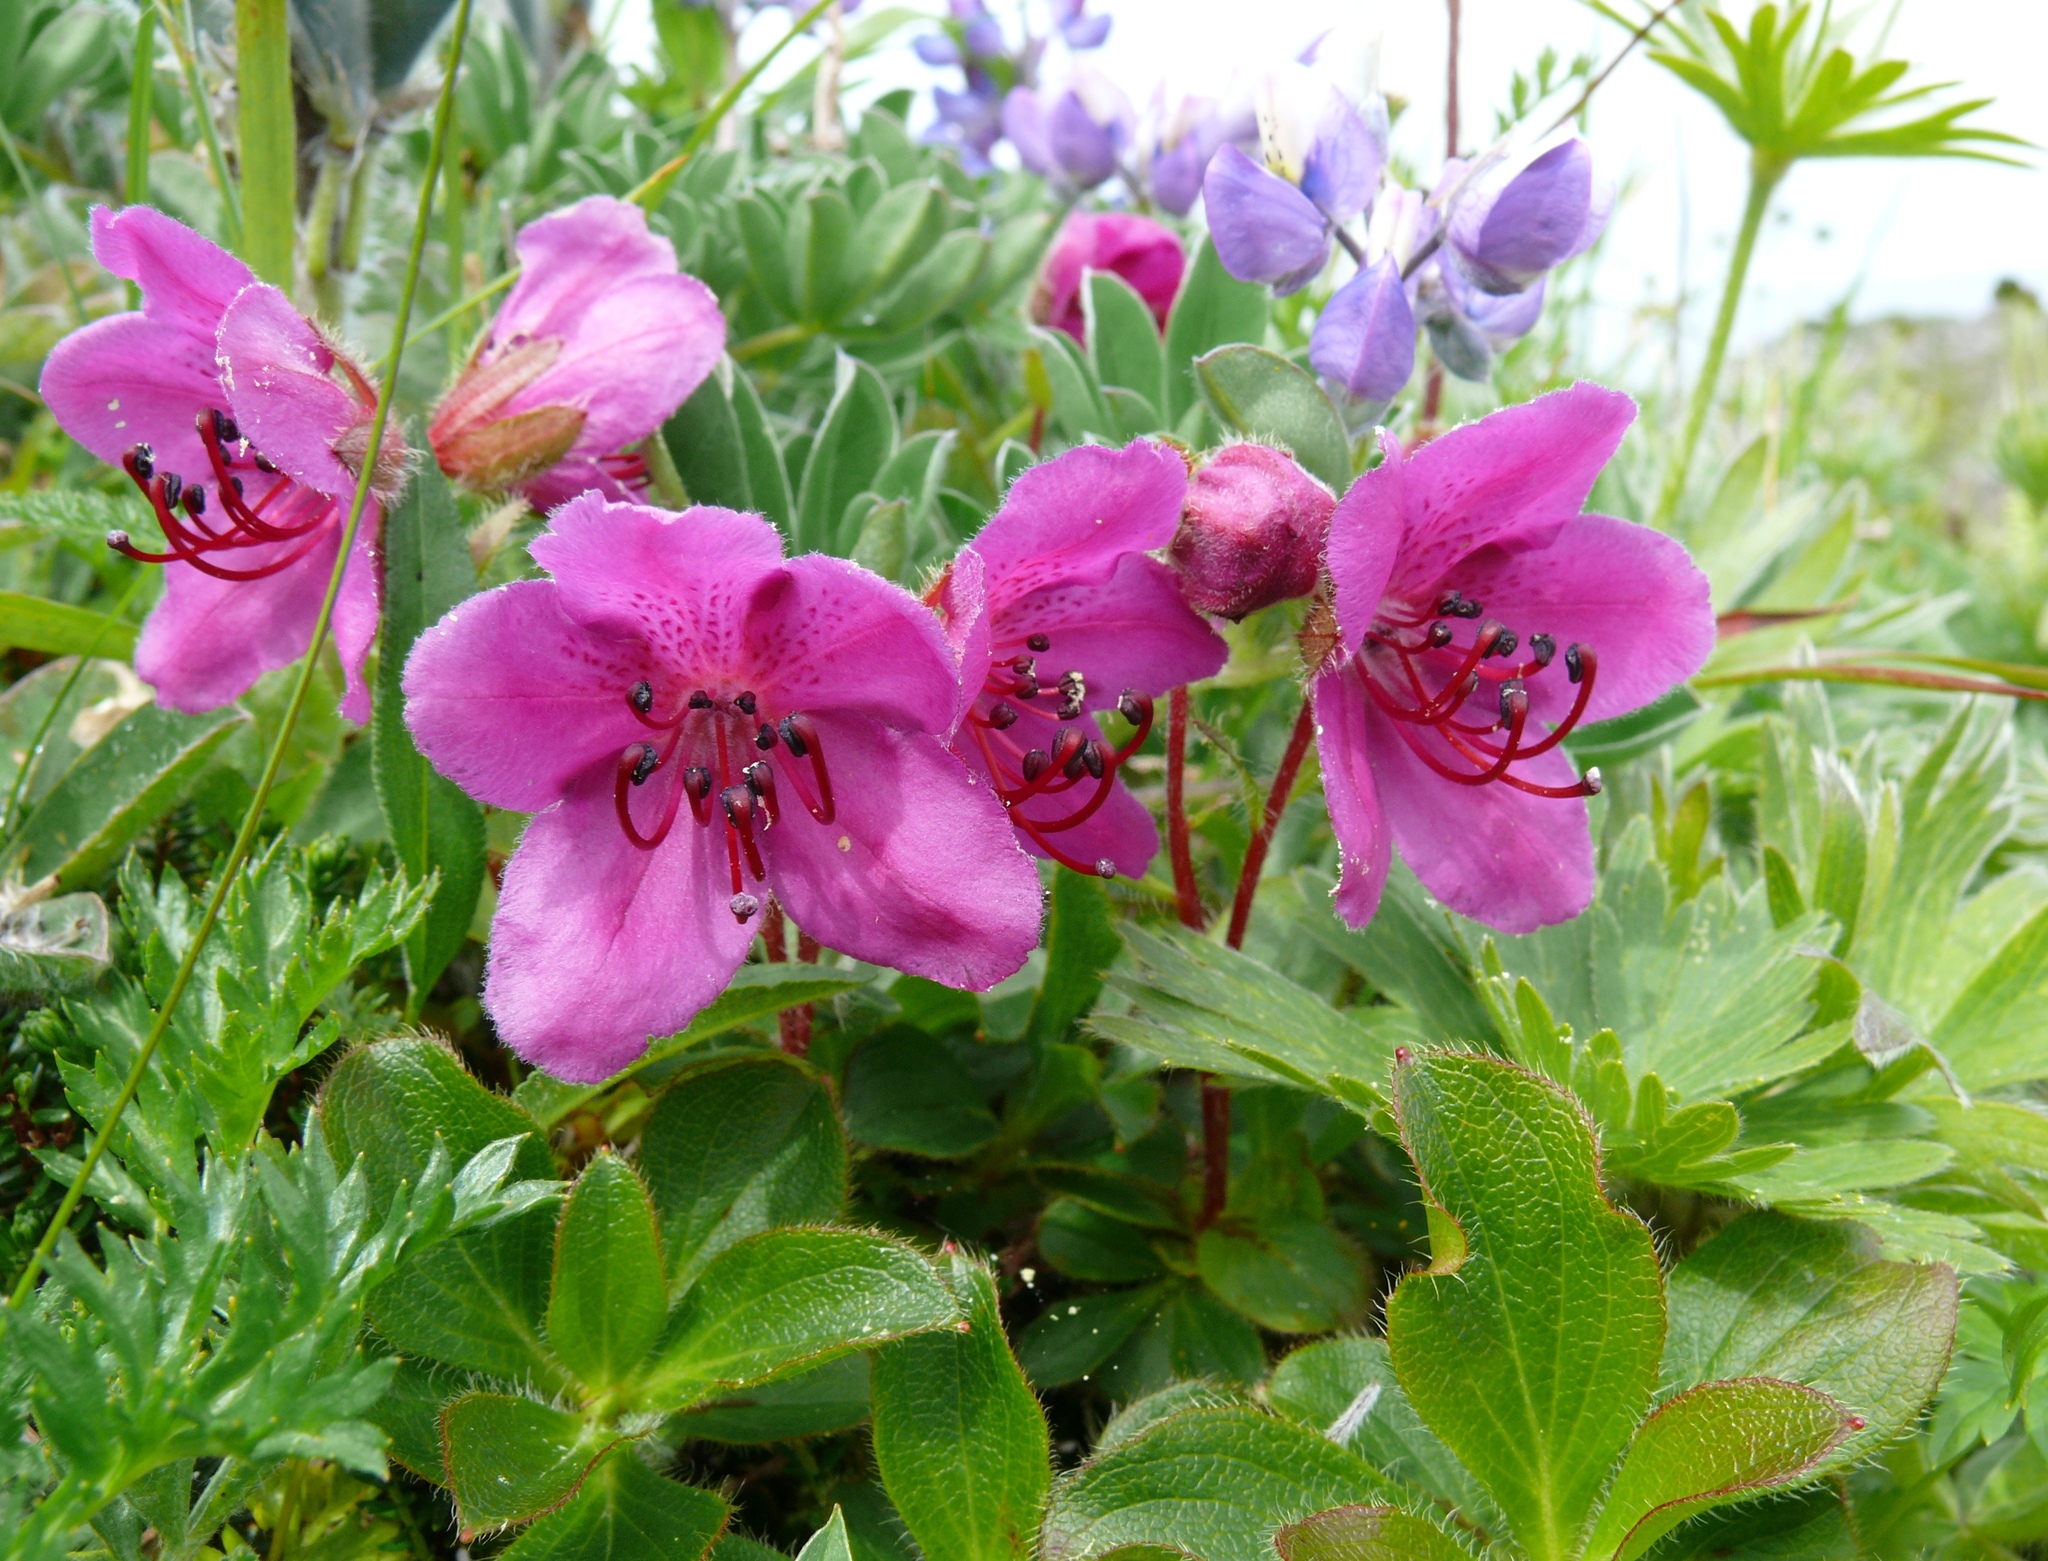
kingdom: Plantae
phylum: Tracheophyta
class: Magnoliopsida
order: Ericales
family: Ericaceae
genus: Rhododendron
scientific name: Rhododendron glandulosum
